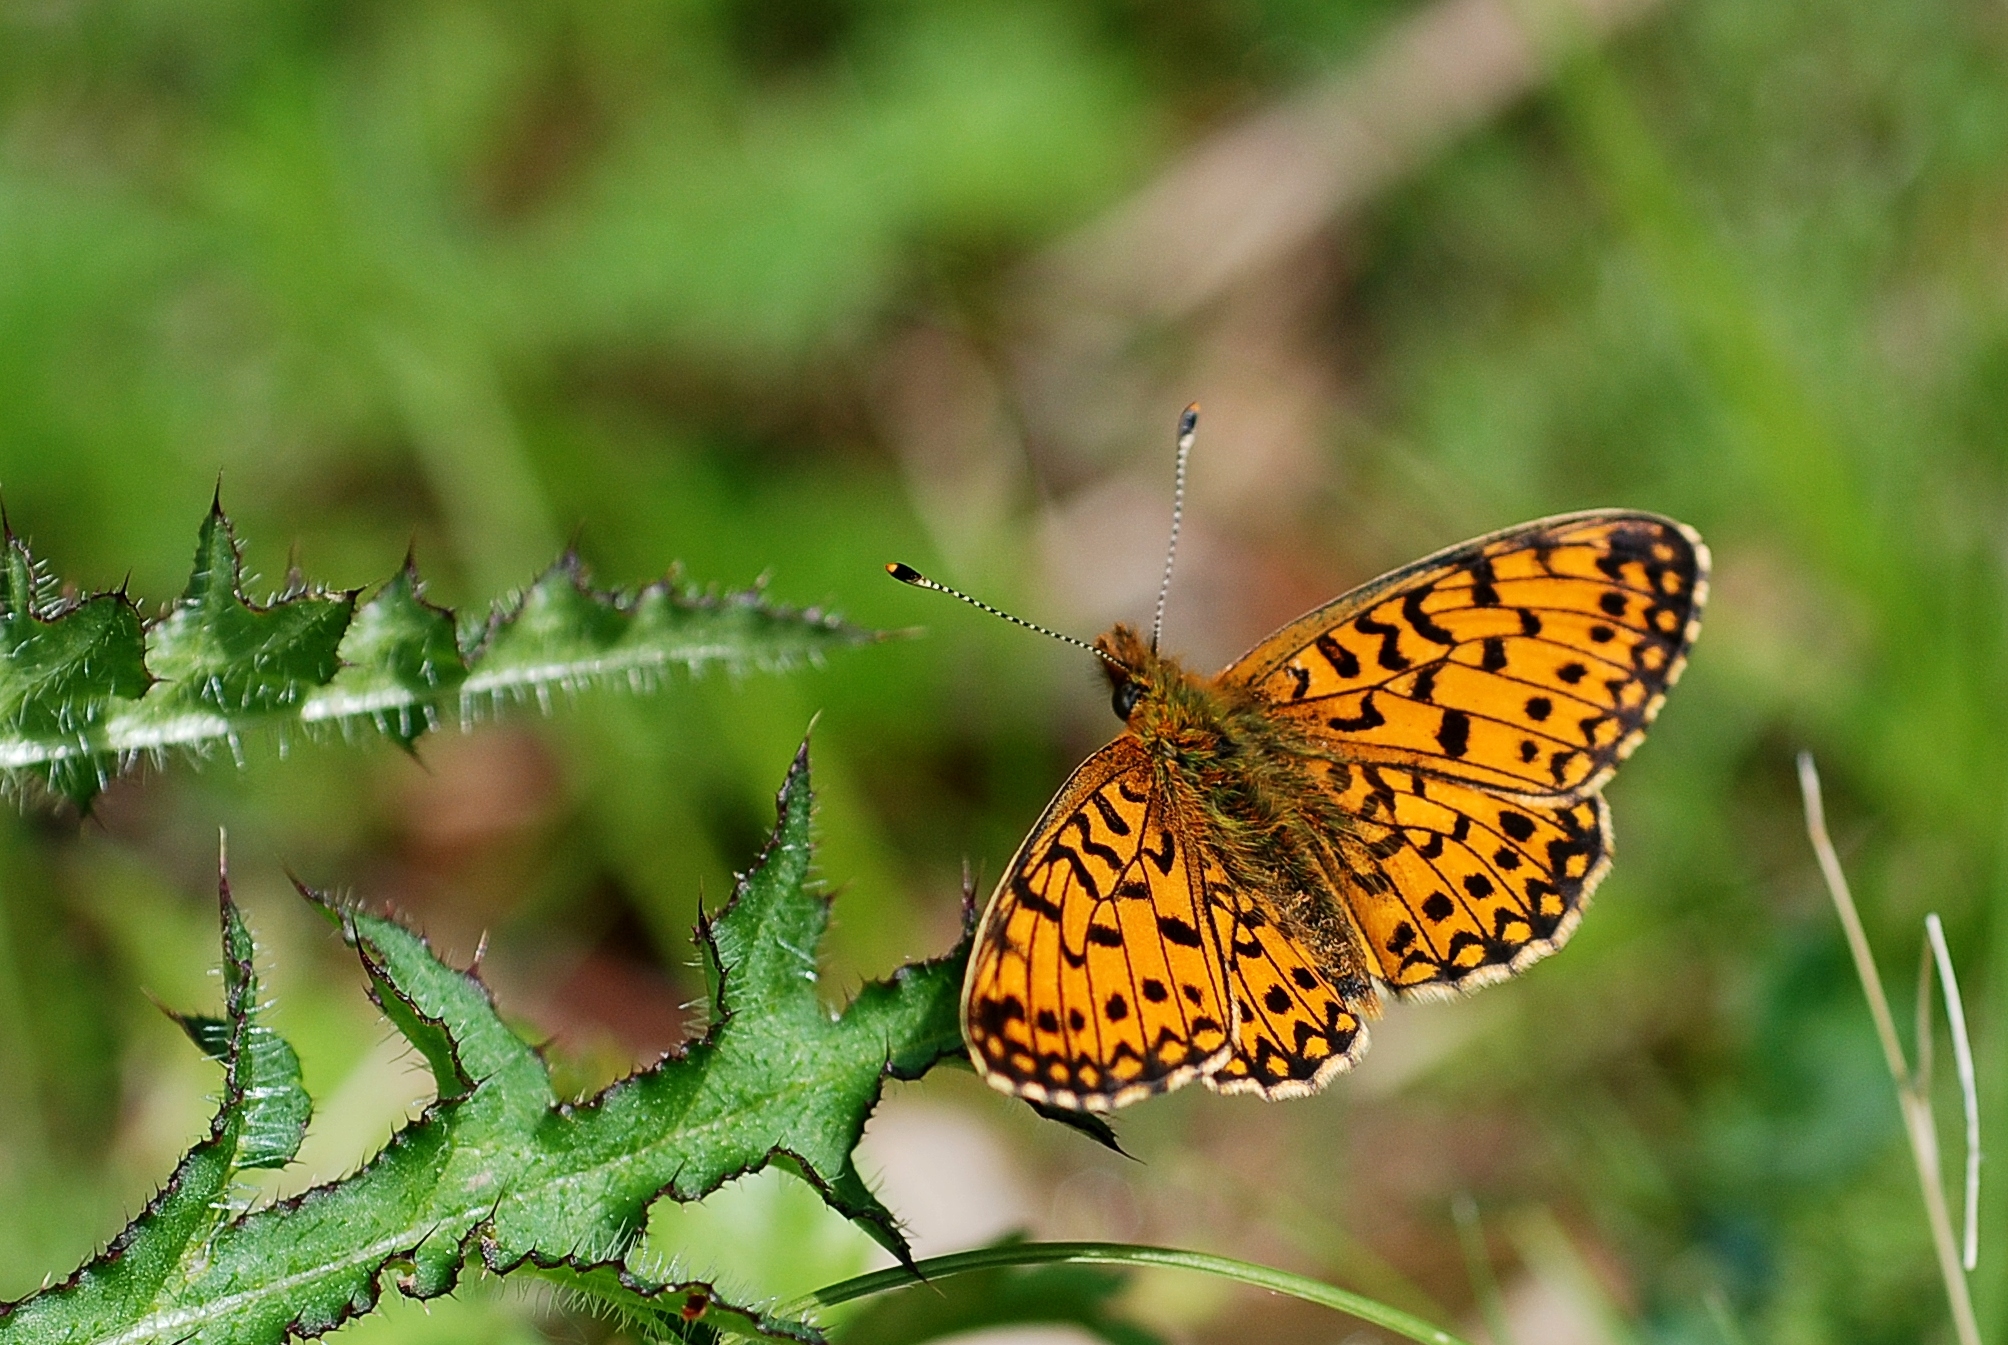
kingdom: Animalia
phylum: Arthropoda
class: Insecta
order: Lepidoptera
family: Nymphalidae
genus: Boloria
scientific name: Boloria selene
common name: Small pearl-bordered fritillary
